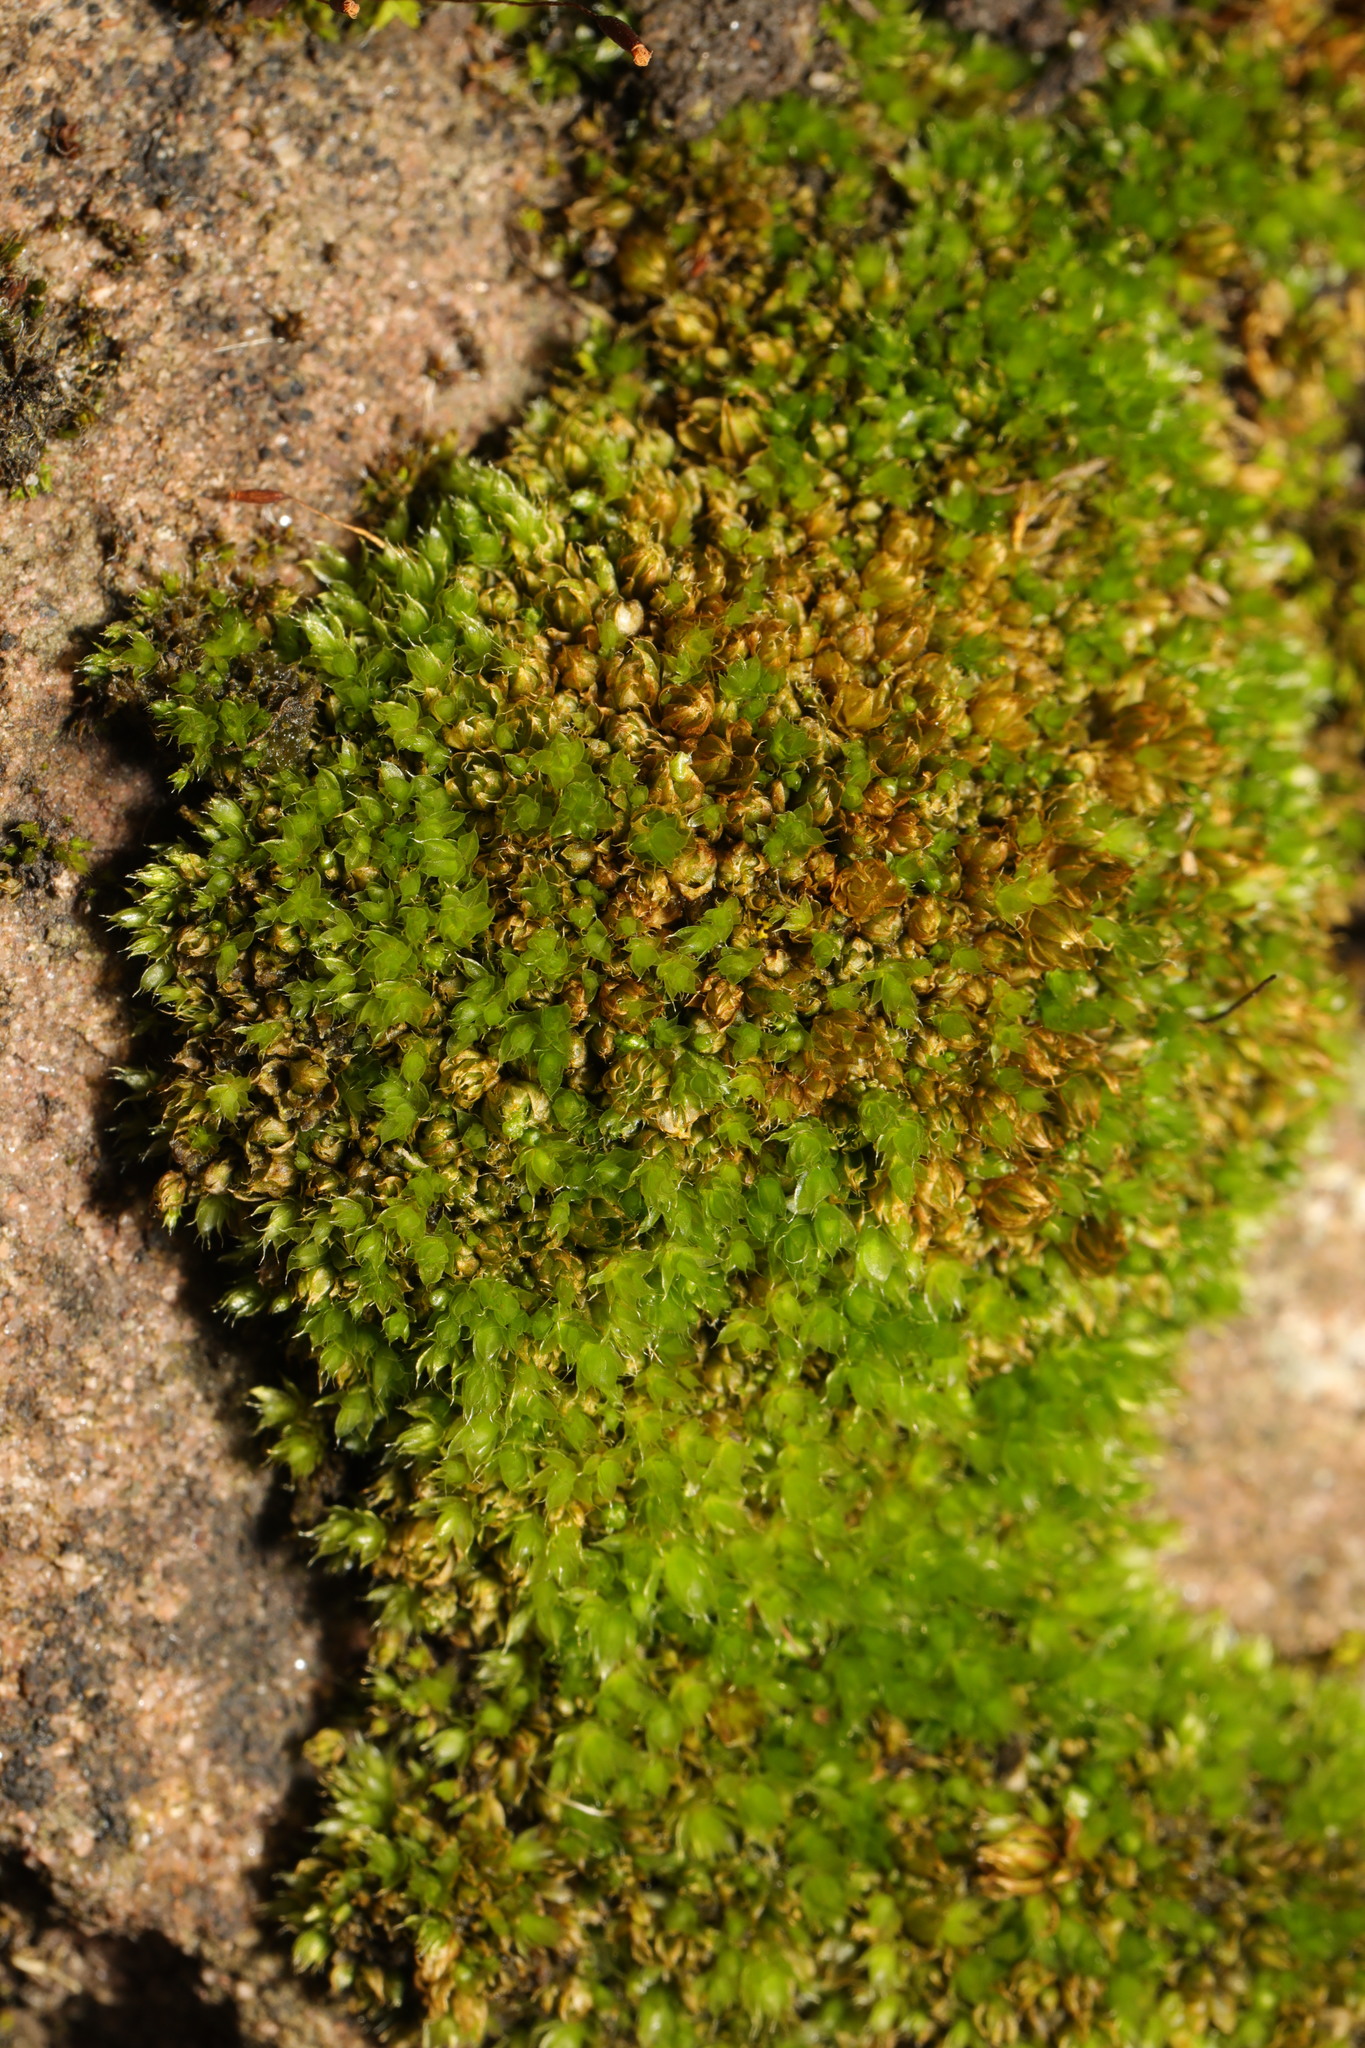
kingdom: Plantae
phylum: Bryophyta
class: Bryopsida
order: Bryales
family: Bryaceae
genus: Rosulabryum
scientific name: Rosulabryum capillare
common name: Capillary thread-moss
